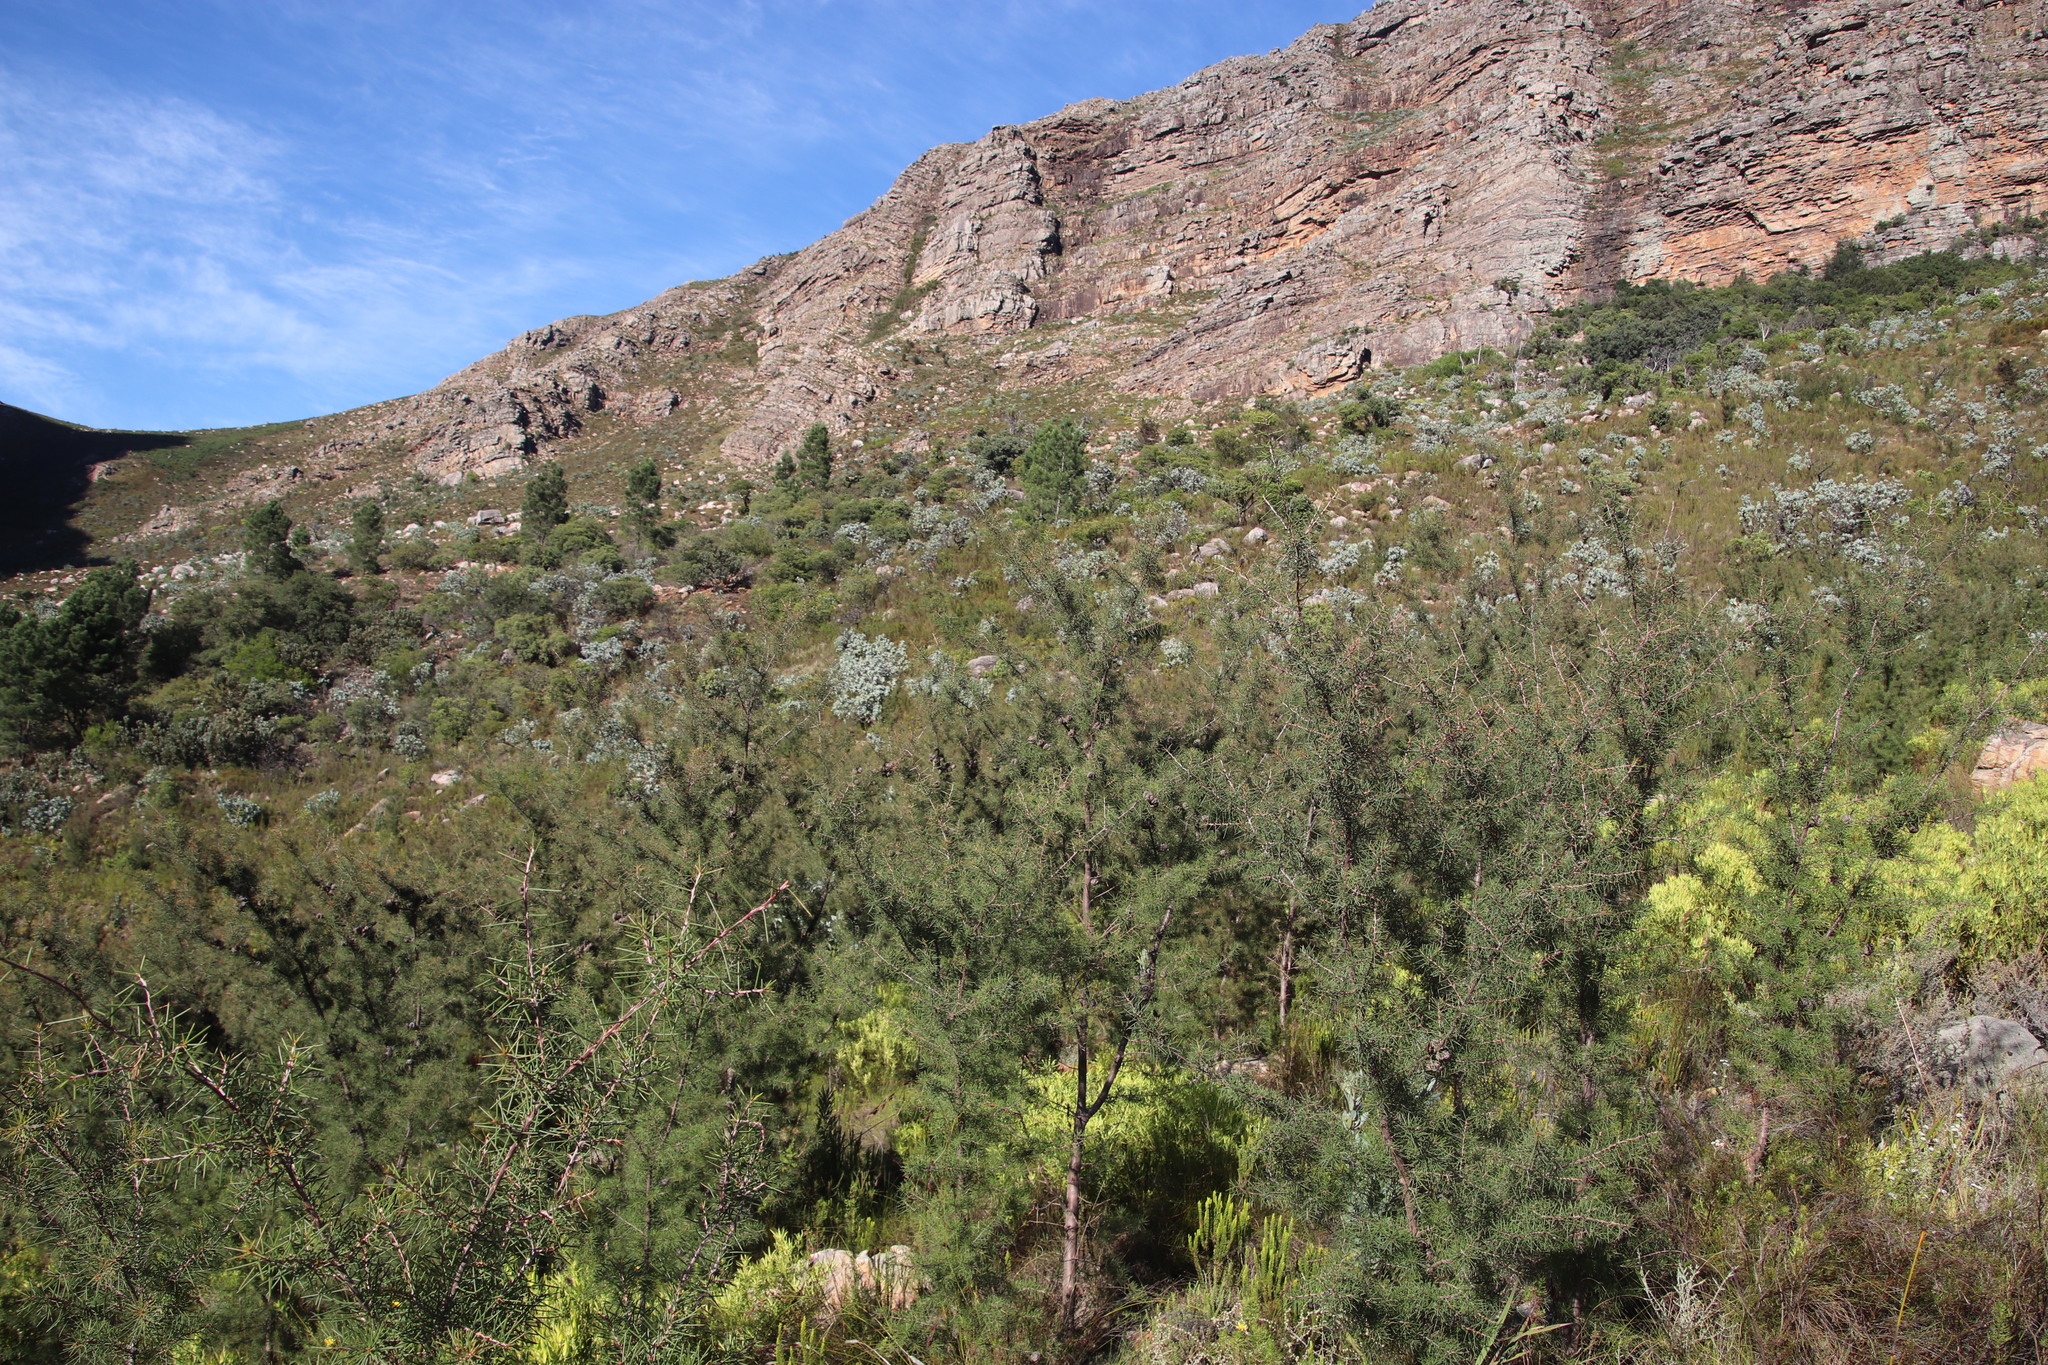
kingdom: Plantae
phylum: Tracheophyta
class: Magnoliopsida
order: Proteales
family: Proteaceae
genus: Hakea
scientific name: Hakea sericea
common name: Needle bush
